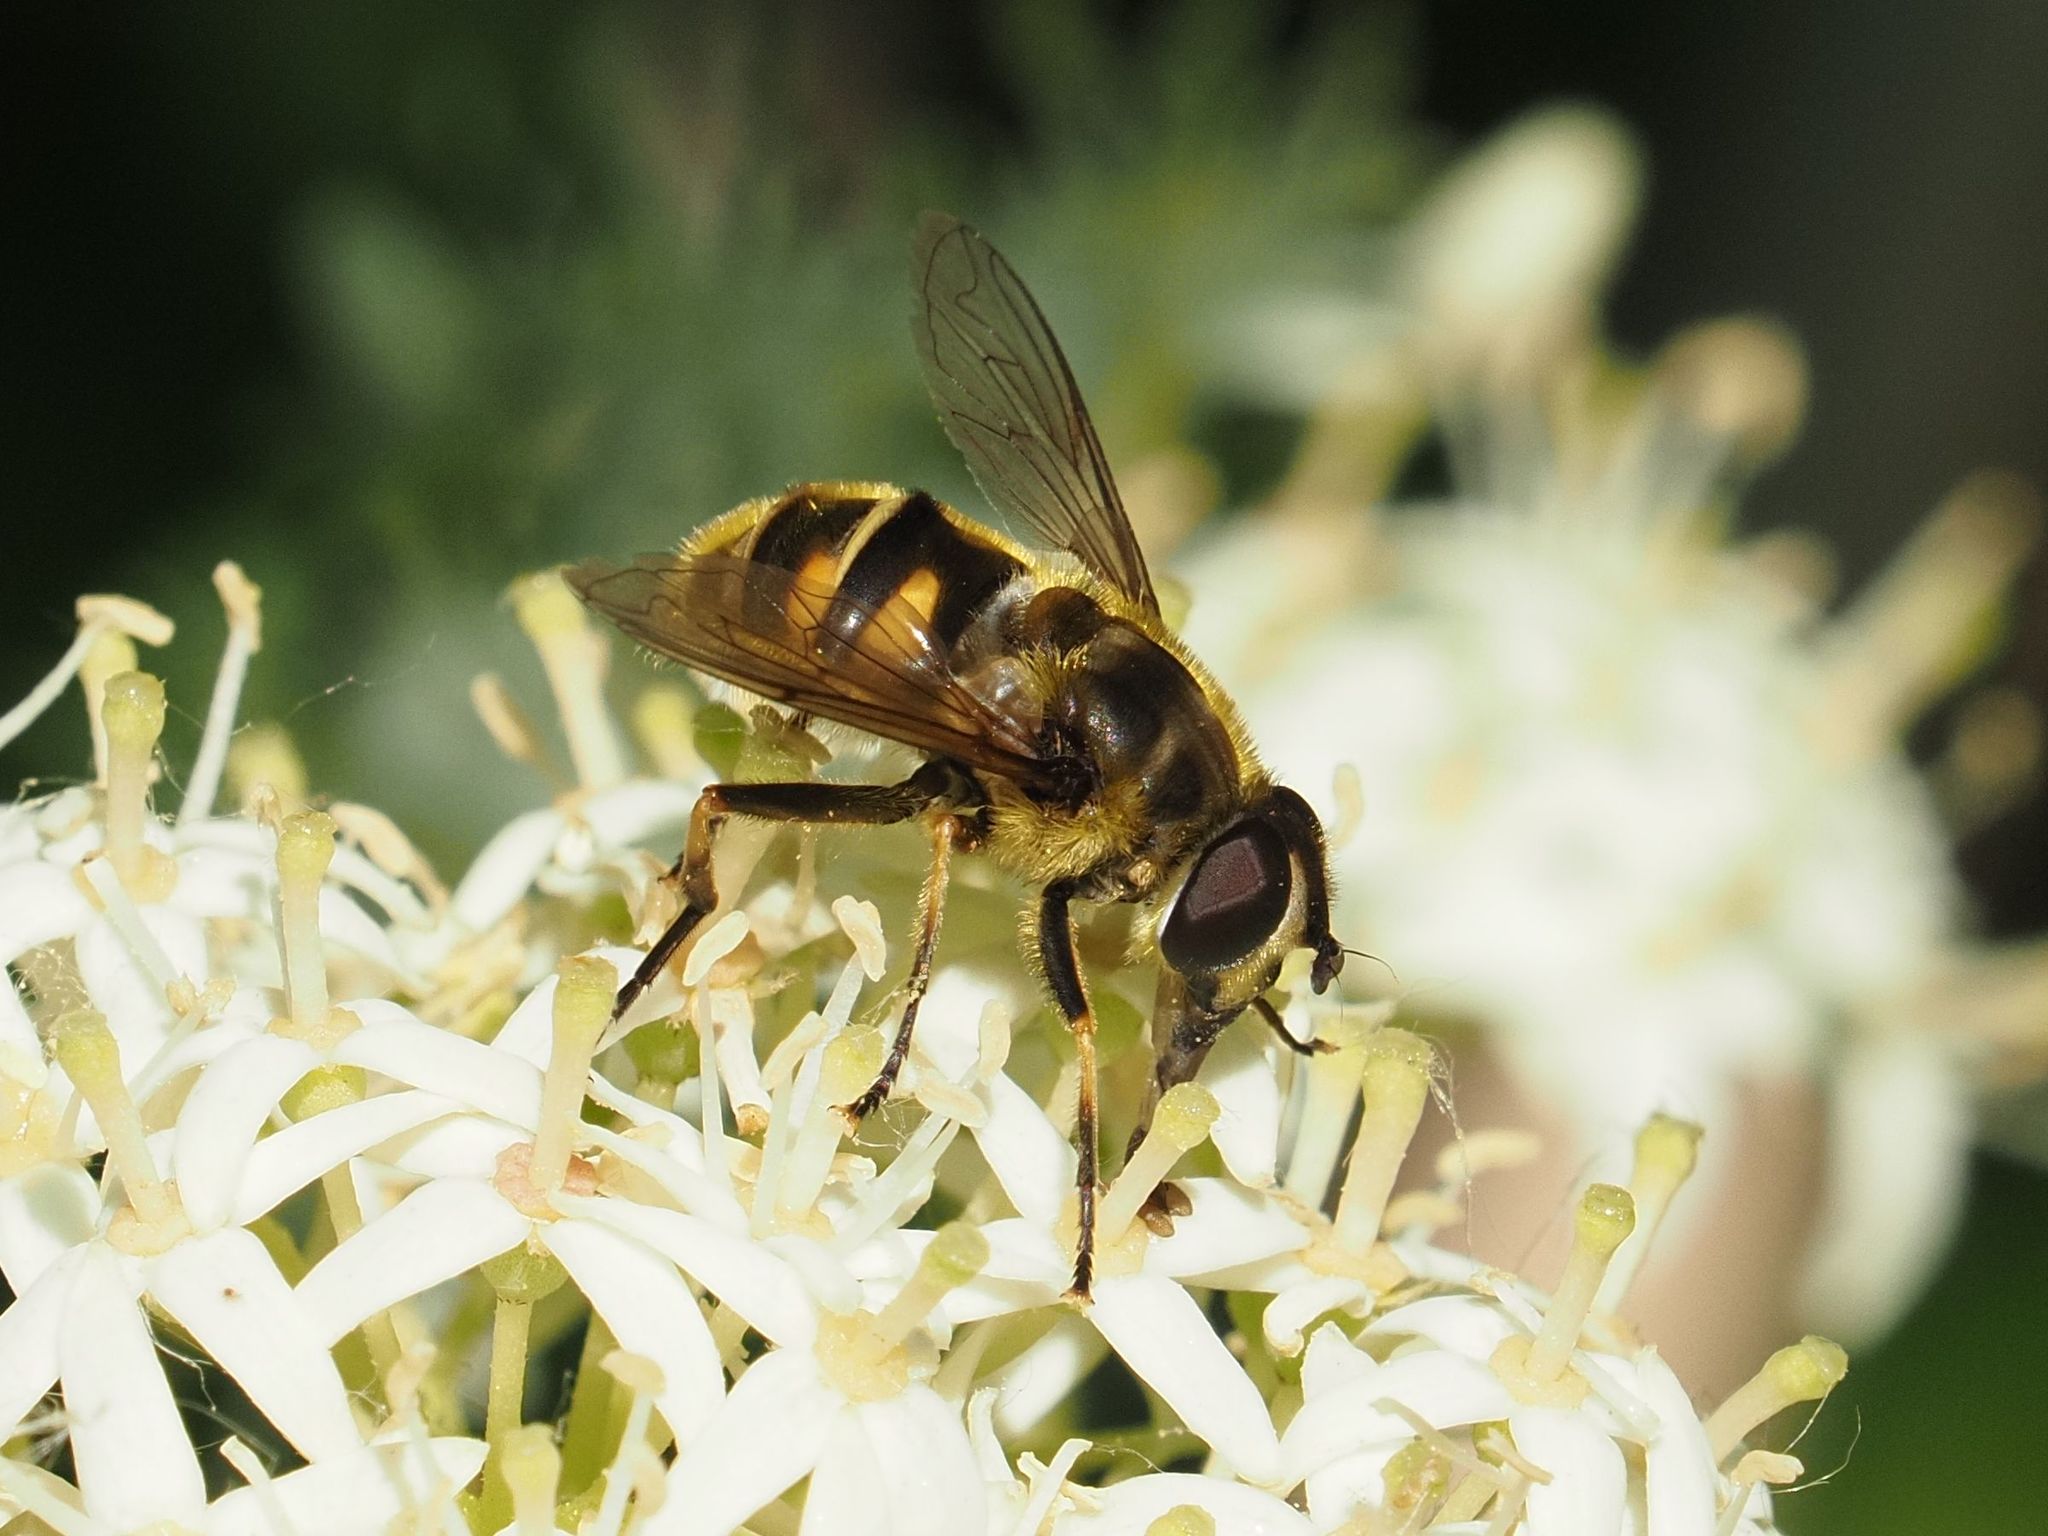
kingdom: Animalia
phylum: Arthropoda
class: Insecta
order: Diptera
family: Syrphidae
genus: Myathropa
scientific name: Myathropa florea
